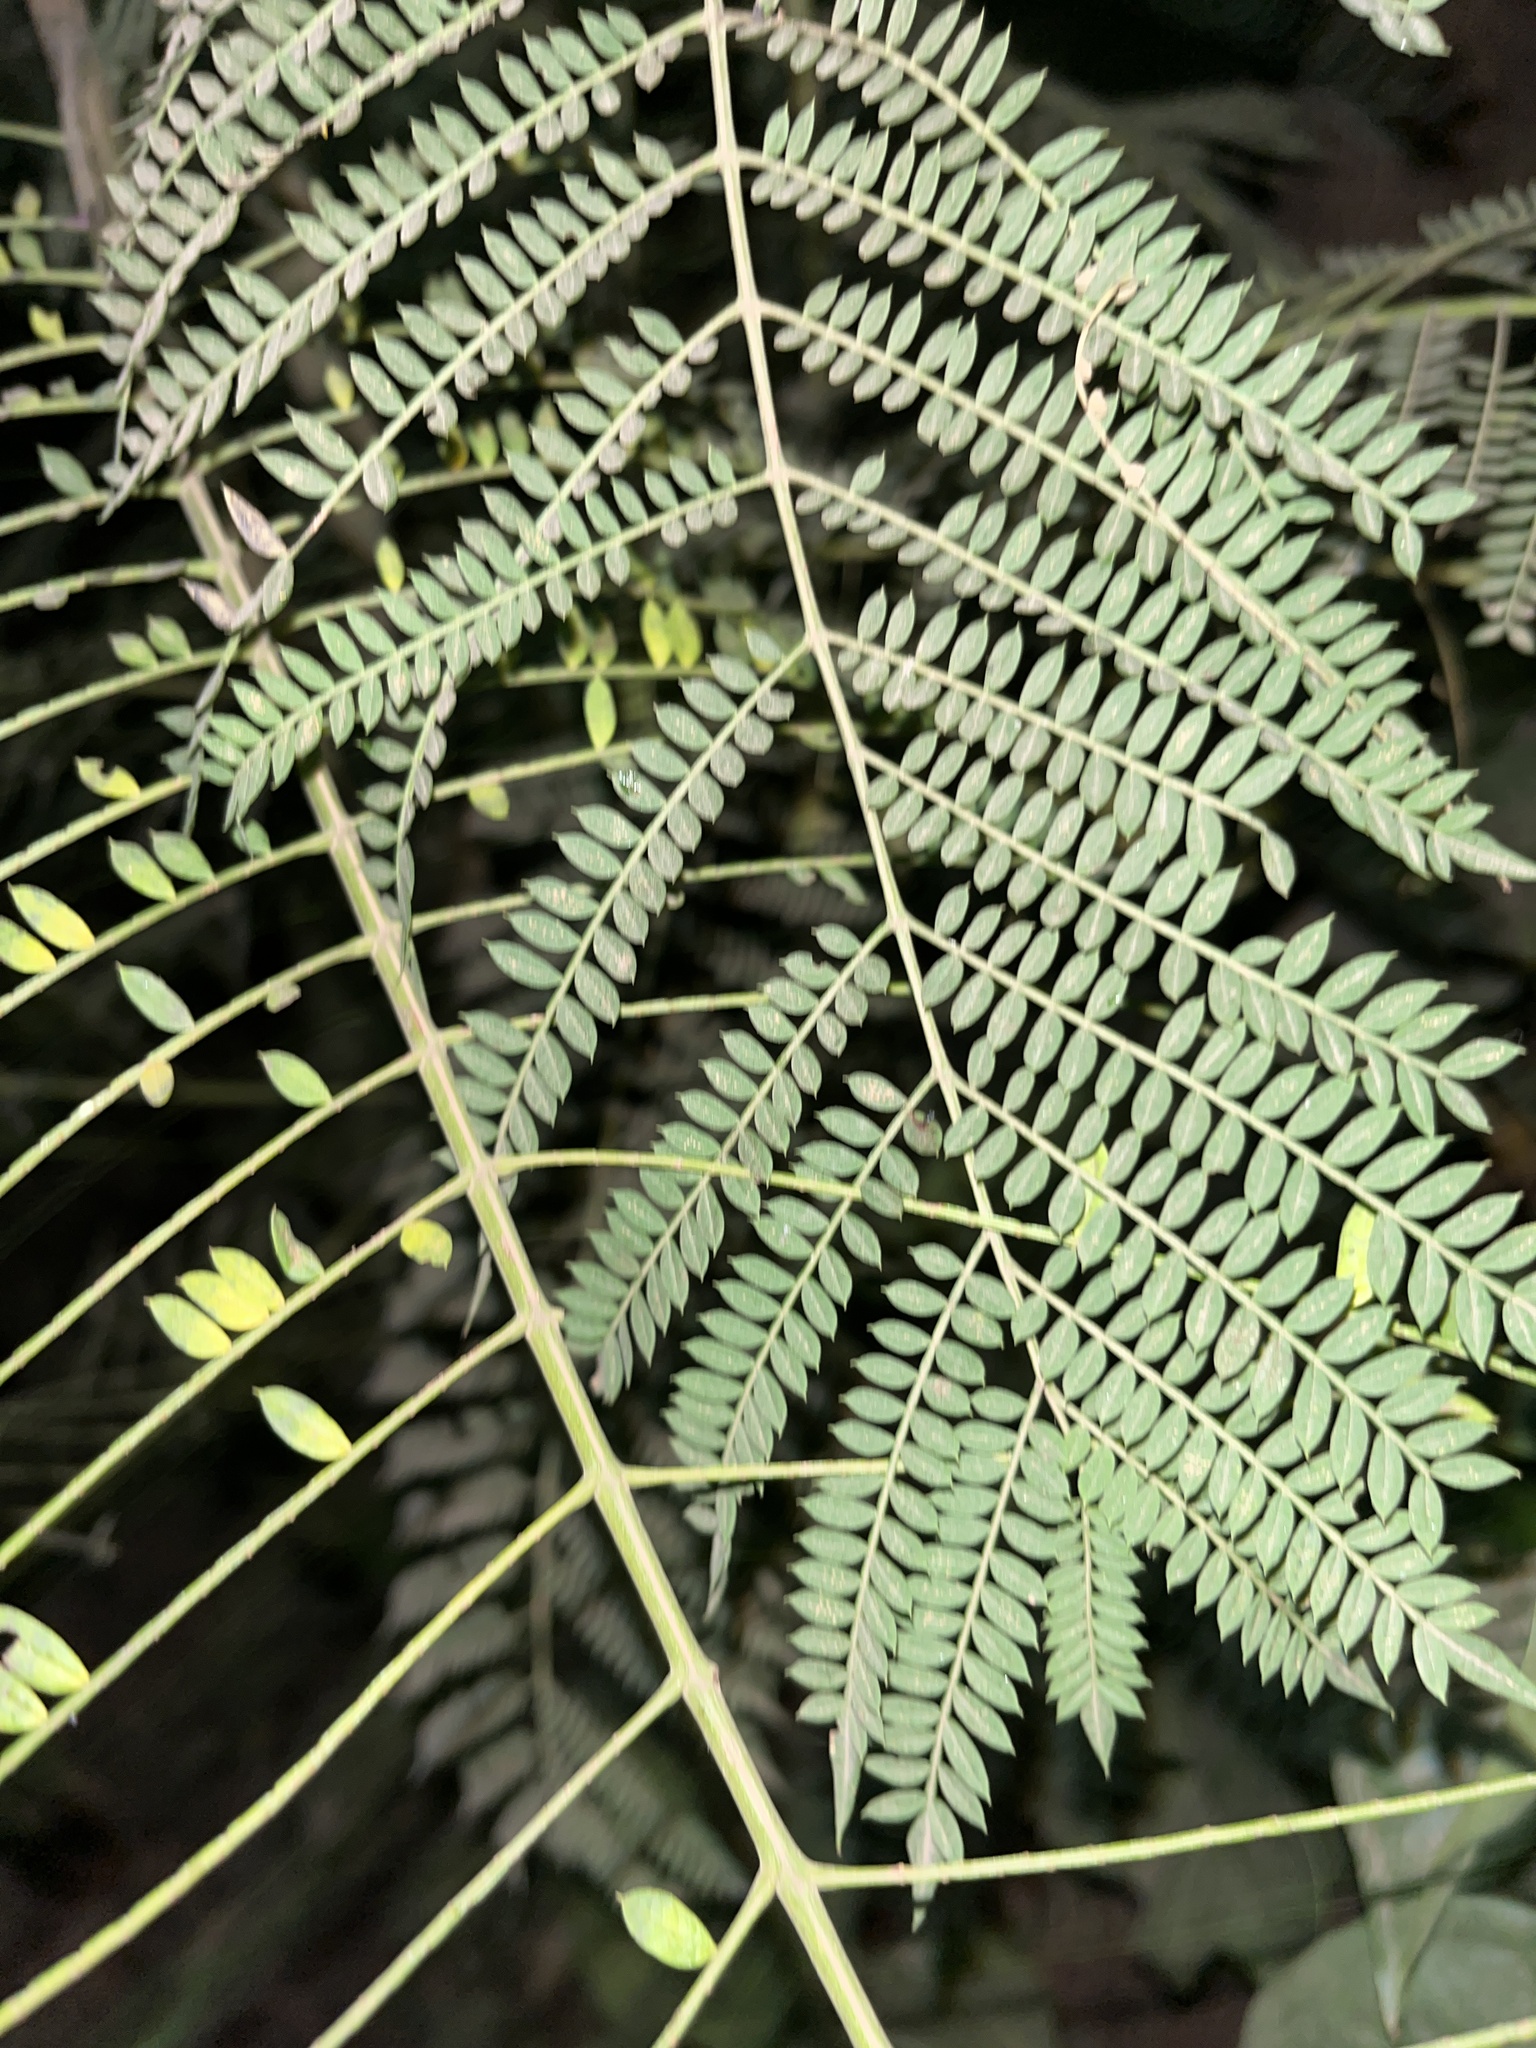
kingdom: Plantae
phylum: Tracheophyta
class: Magnoliopsida
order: Lamiales
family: Bignoniaceae
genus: Jacaranda
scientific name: Jacaranda mimosifolia
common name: Black poui
